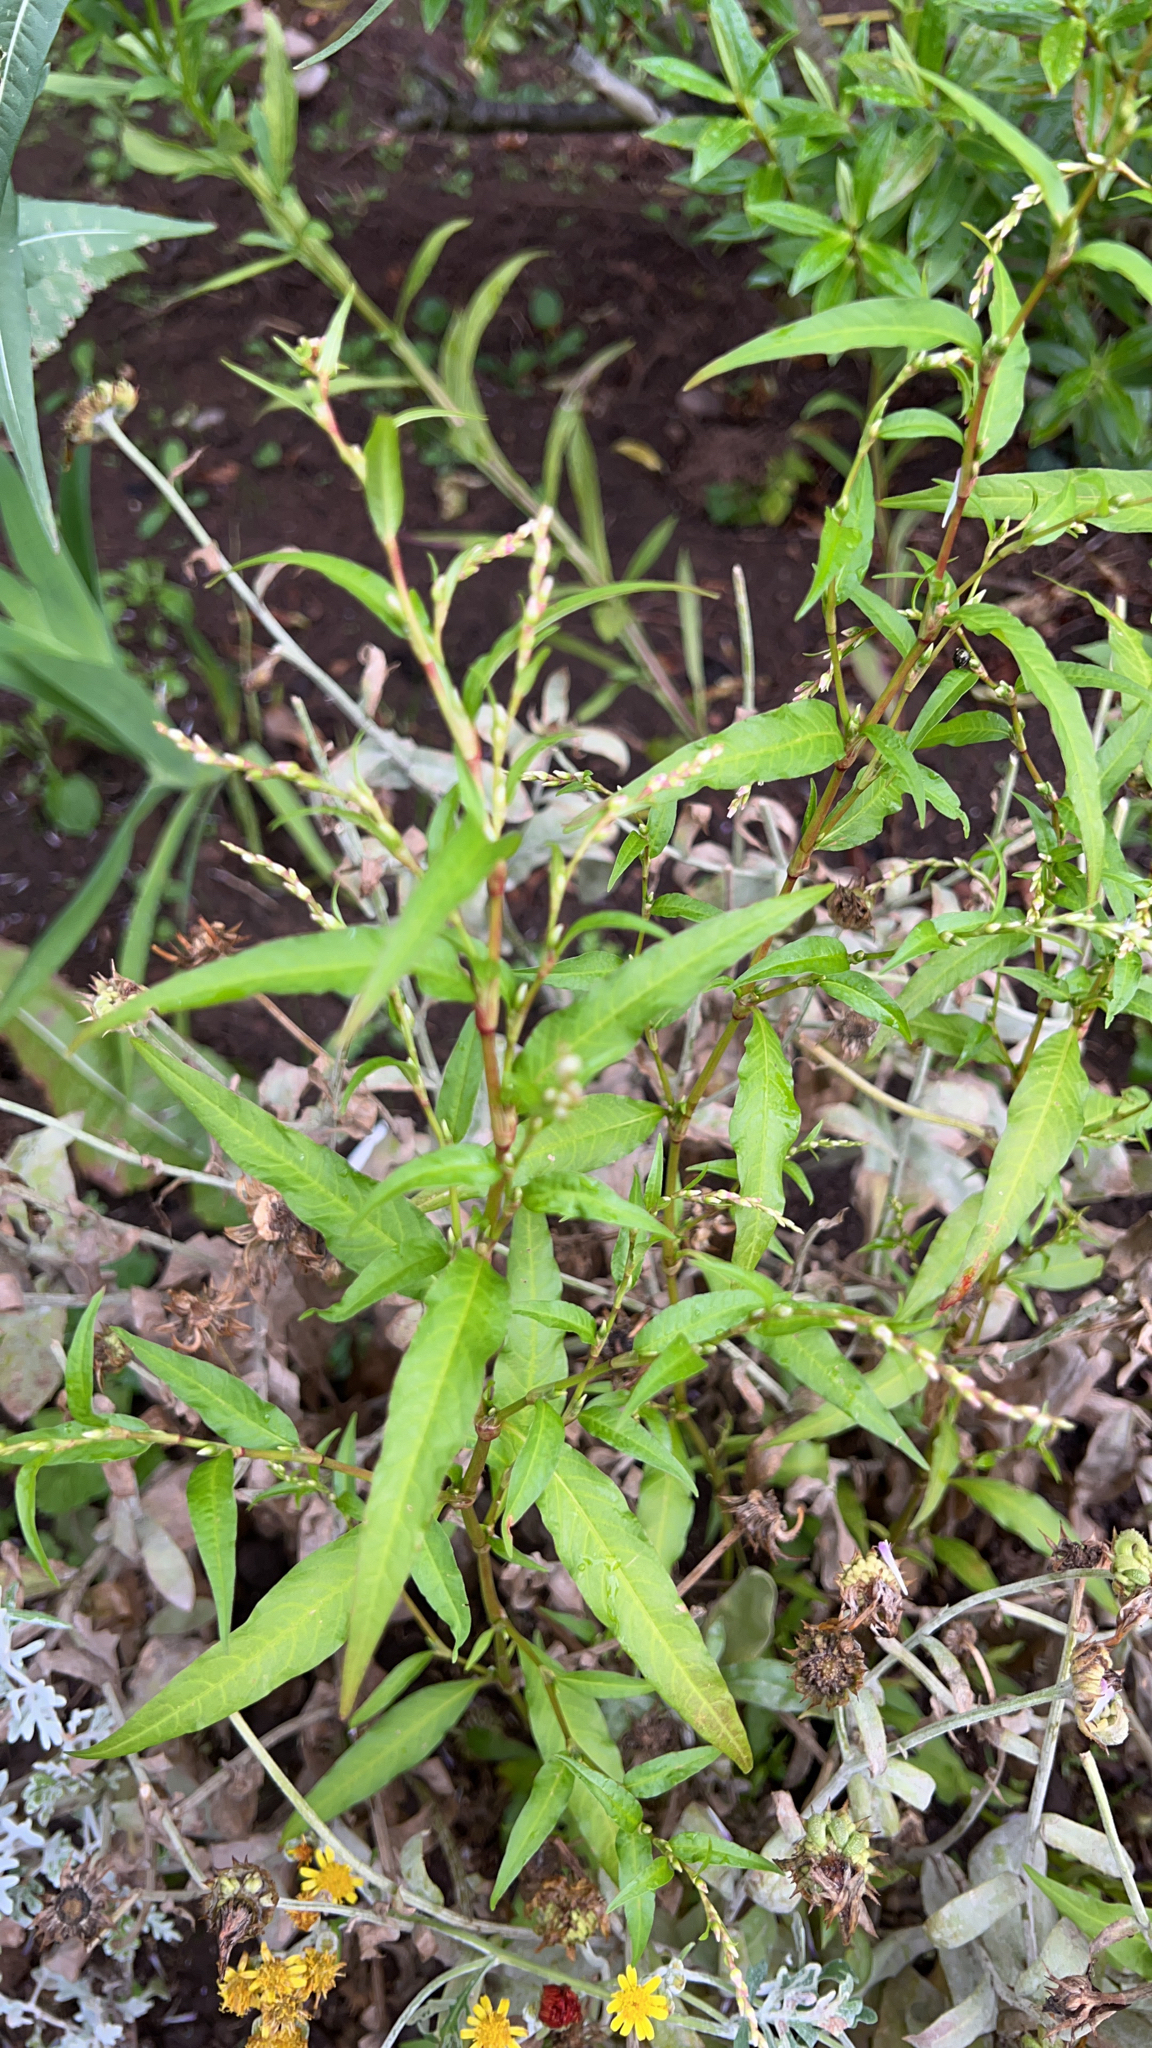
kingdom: Plantae
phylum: Tracheophyta
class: Magnoliopsida
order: Caryophyllales
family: Polygonaceae
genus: Persicaria
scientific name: Persicaria hydropiper
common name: Water-pepper
